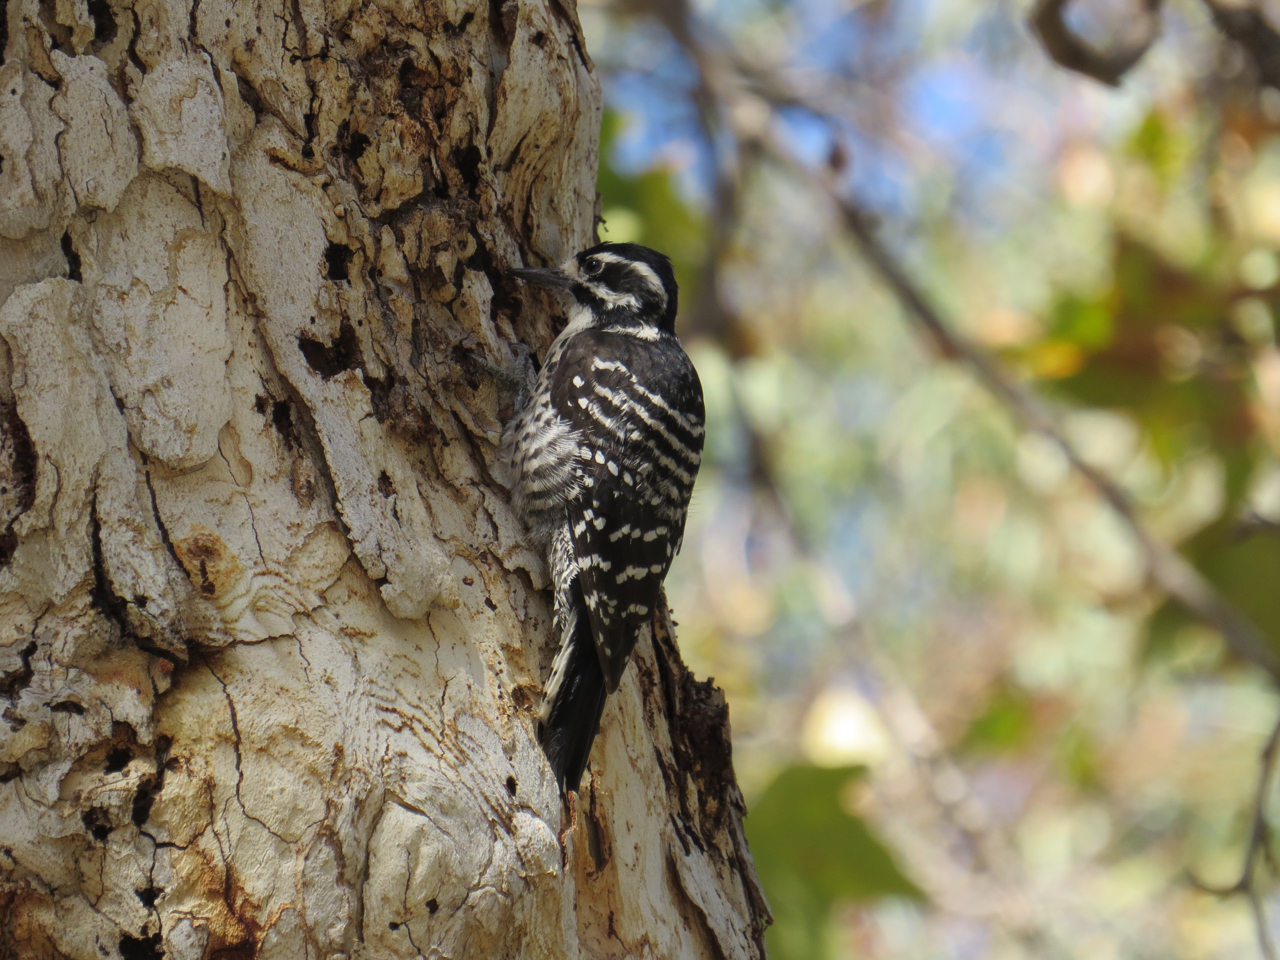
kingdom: Animalia
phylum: Chordata
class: Aves
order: Piciformes
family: Picidae
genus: Dryobates
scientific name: Dryobates nuttallii
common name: Nuttall's woodpecker
